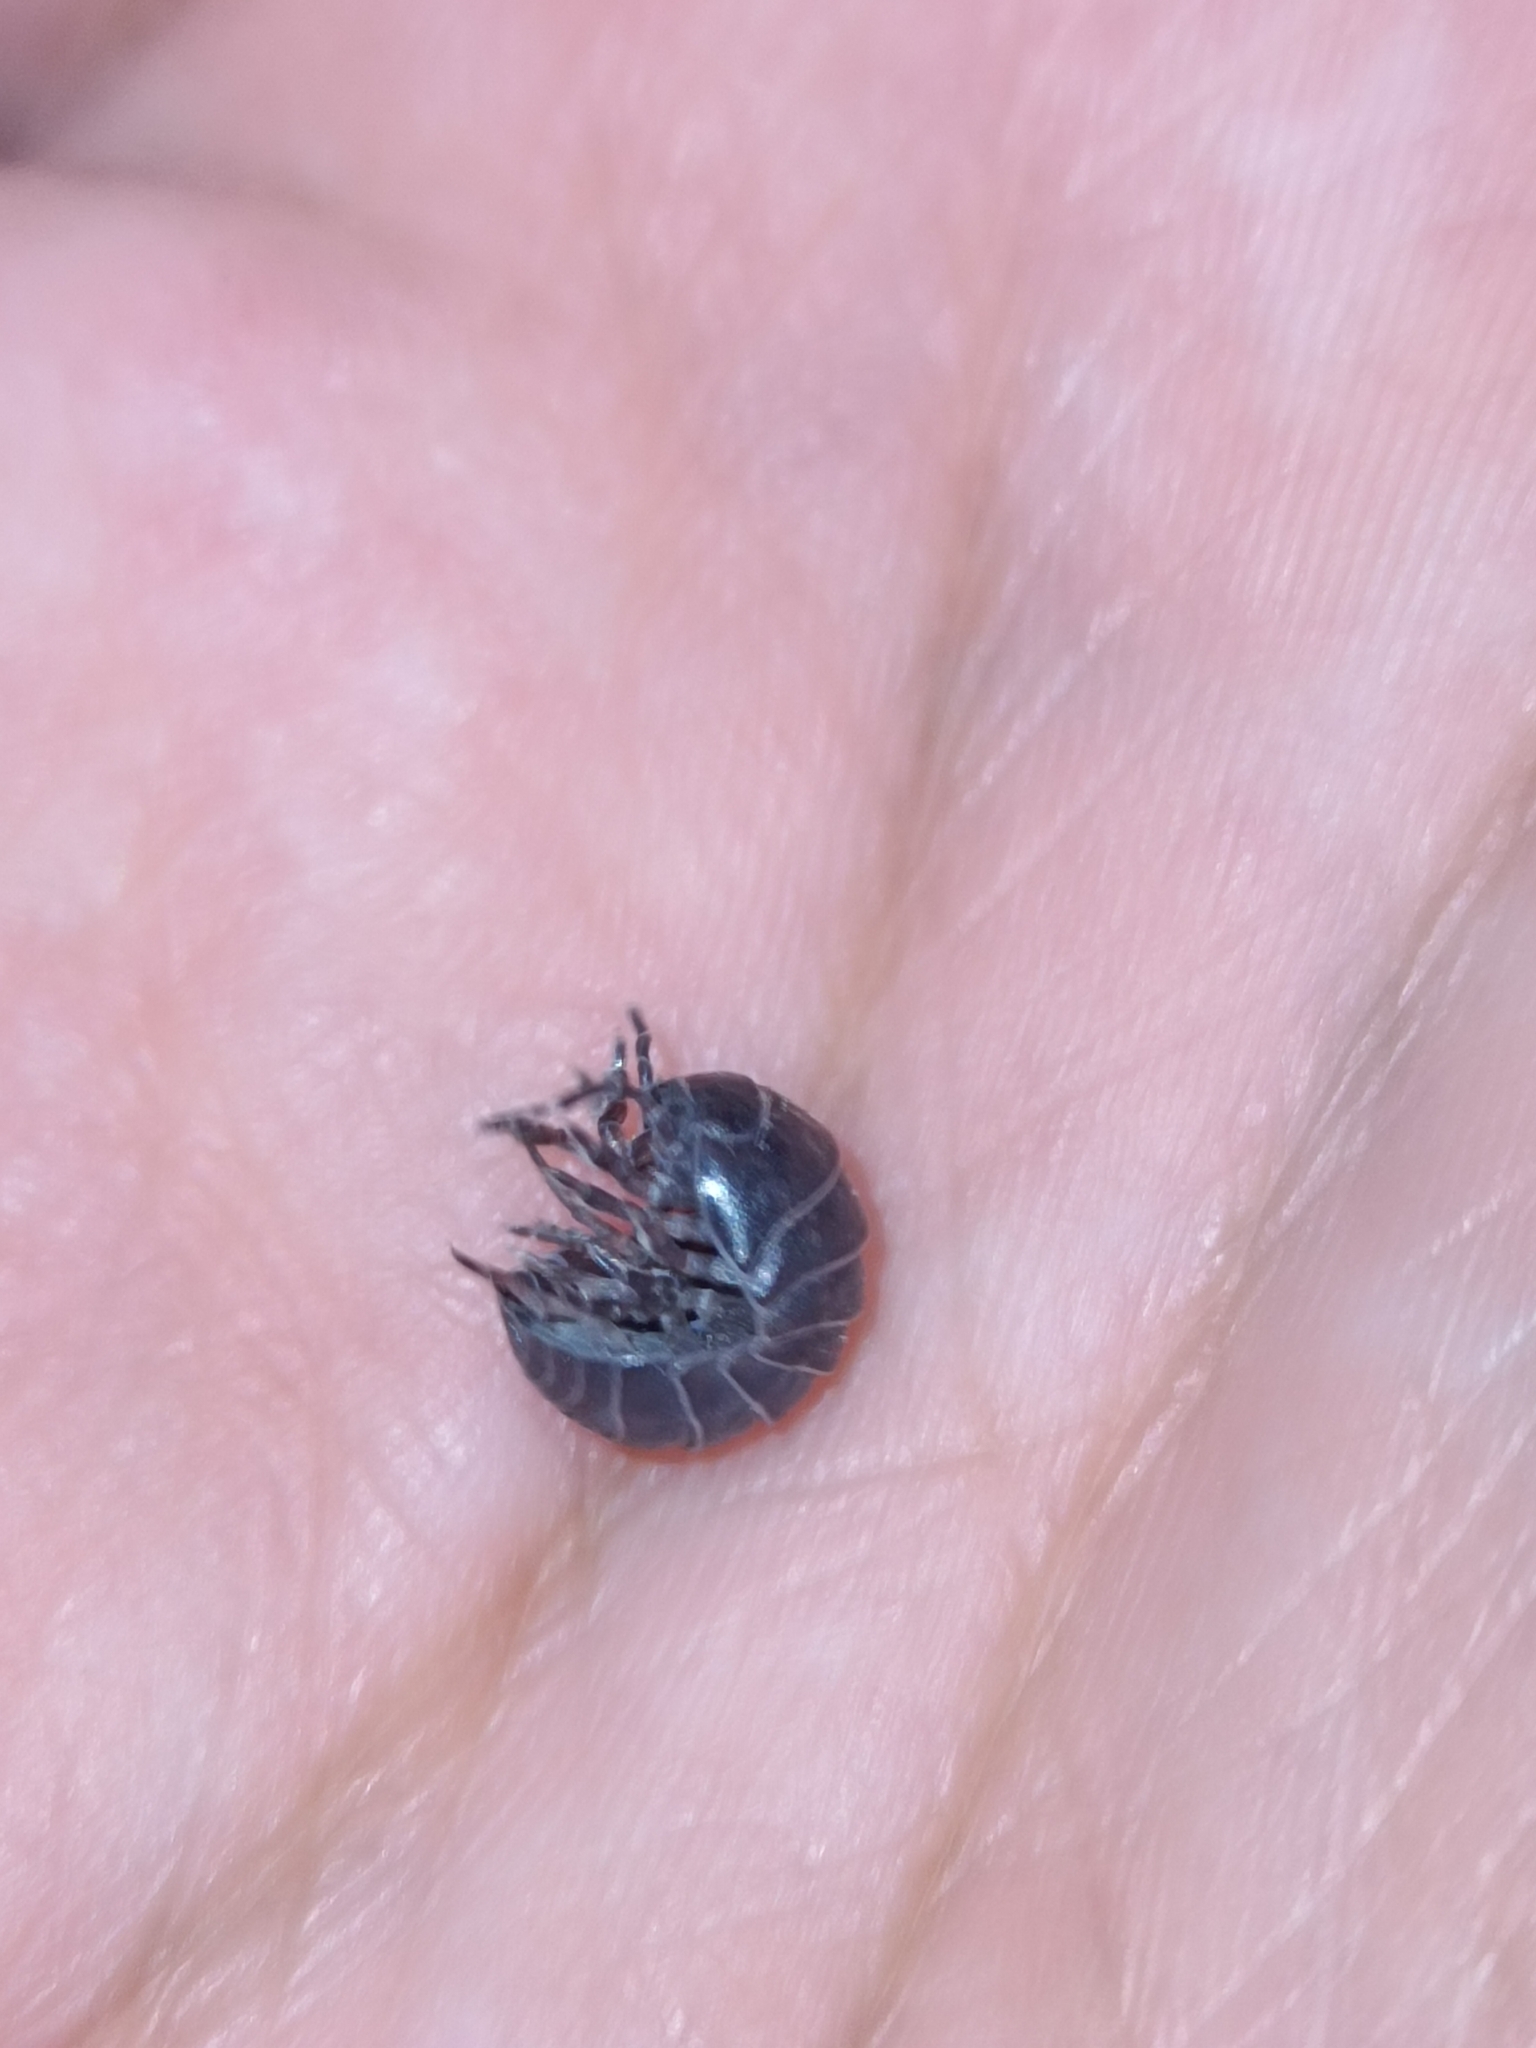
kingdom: Animalia
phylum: Arthropoda
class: Malacostraca
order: Isopoda
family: Armadillidiidae
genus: Armadillidium
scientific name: Armadillidium vulgare
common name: Common pill woodlouse
